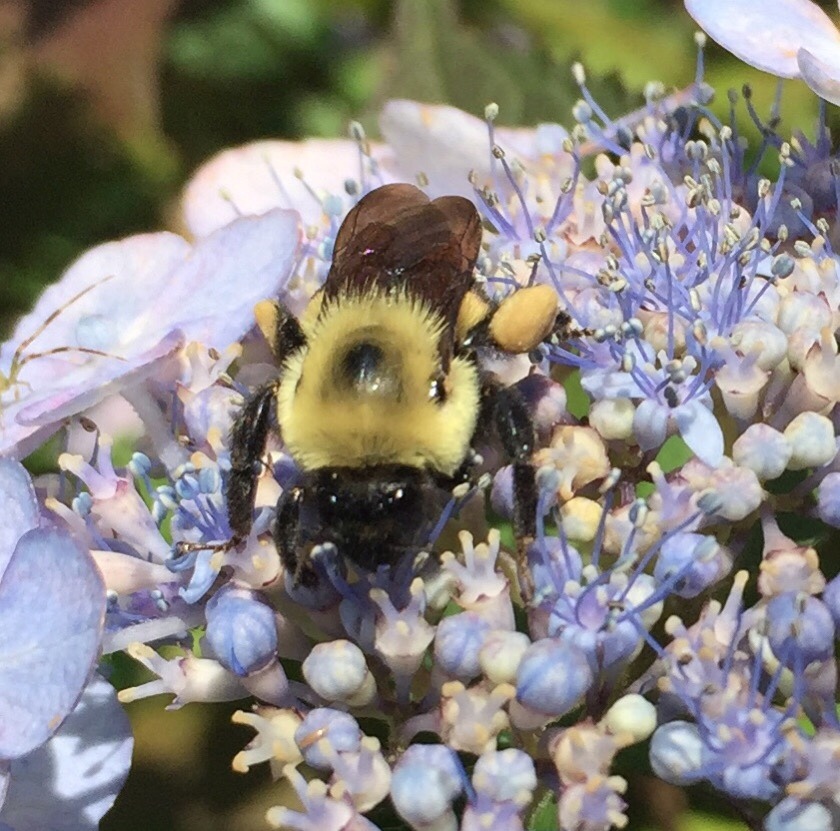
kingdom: Animalia
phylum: Arthropoda
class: Insecta
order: Hymenoptera
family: Apidae
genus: Bombus
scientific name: Bombus griseocollis
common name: Brown-belted bumble bee
